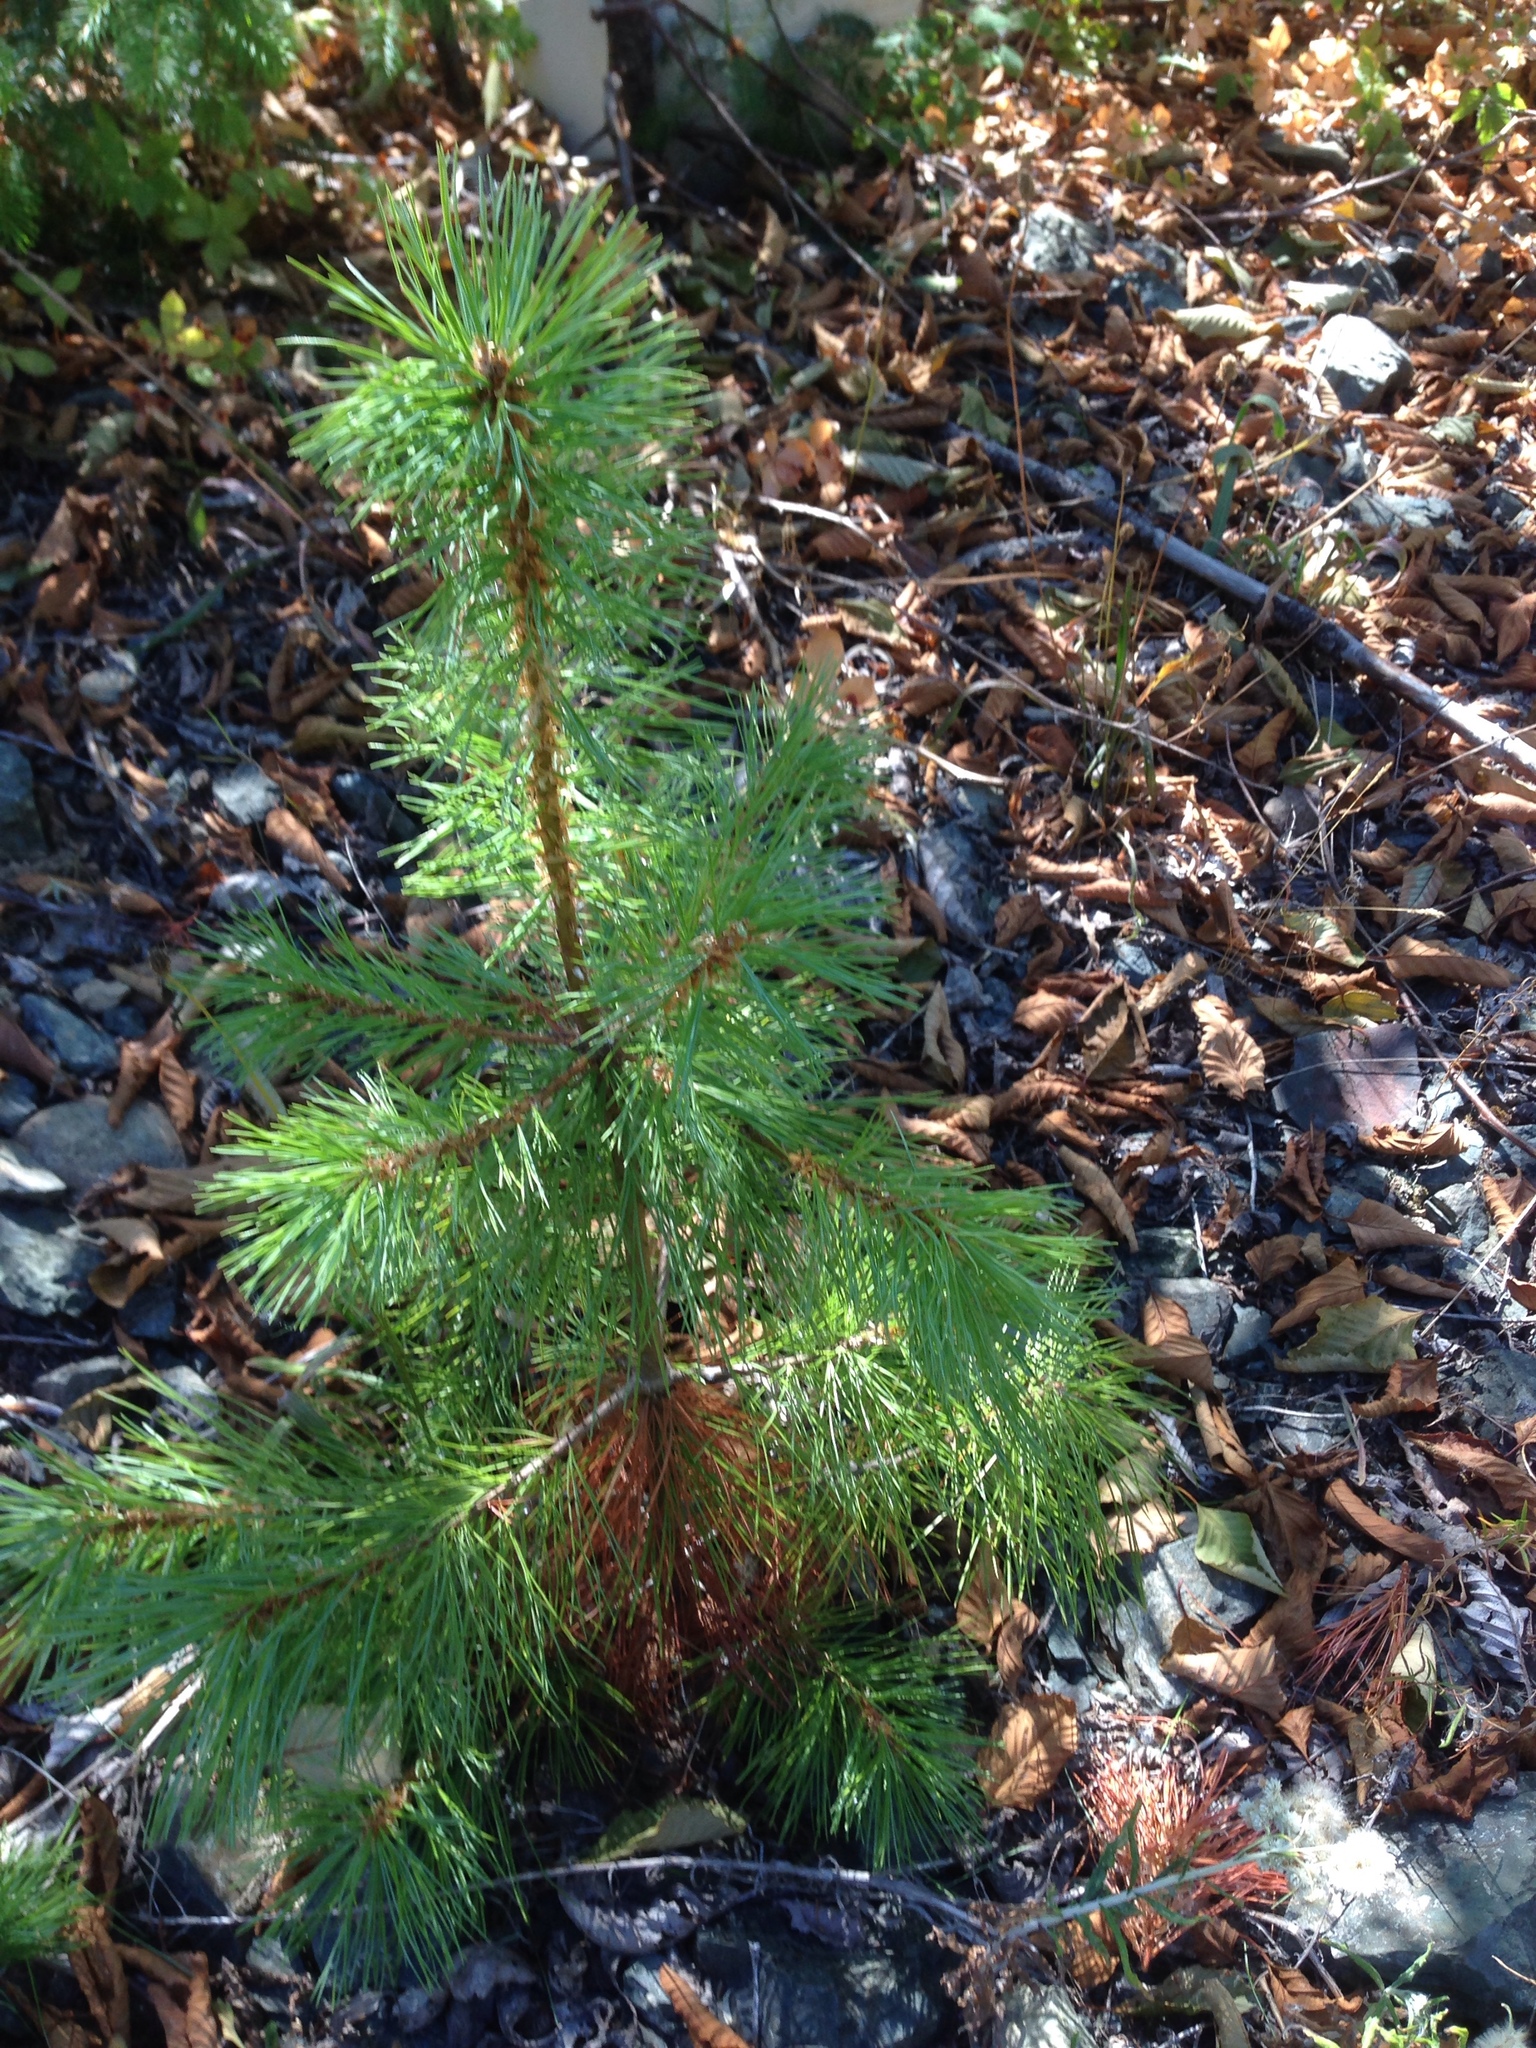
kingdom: Plantae
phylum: Tracheophyta
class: Pinopsida
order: Pinales
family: Pinaceae
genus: Pinus
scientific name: Pinus monticola
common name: Western white pine
